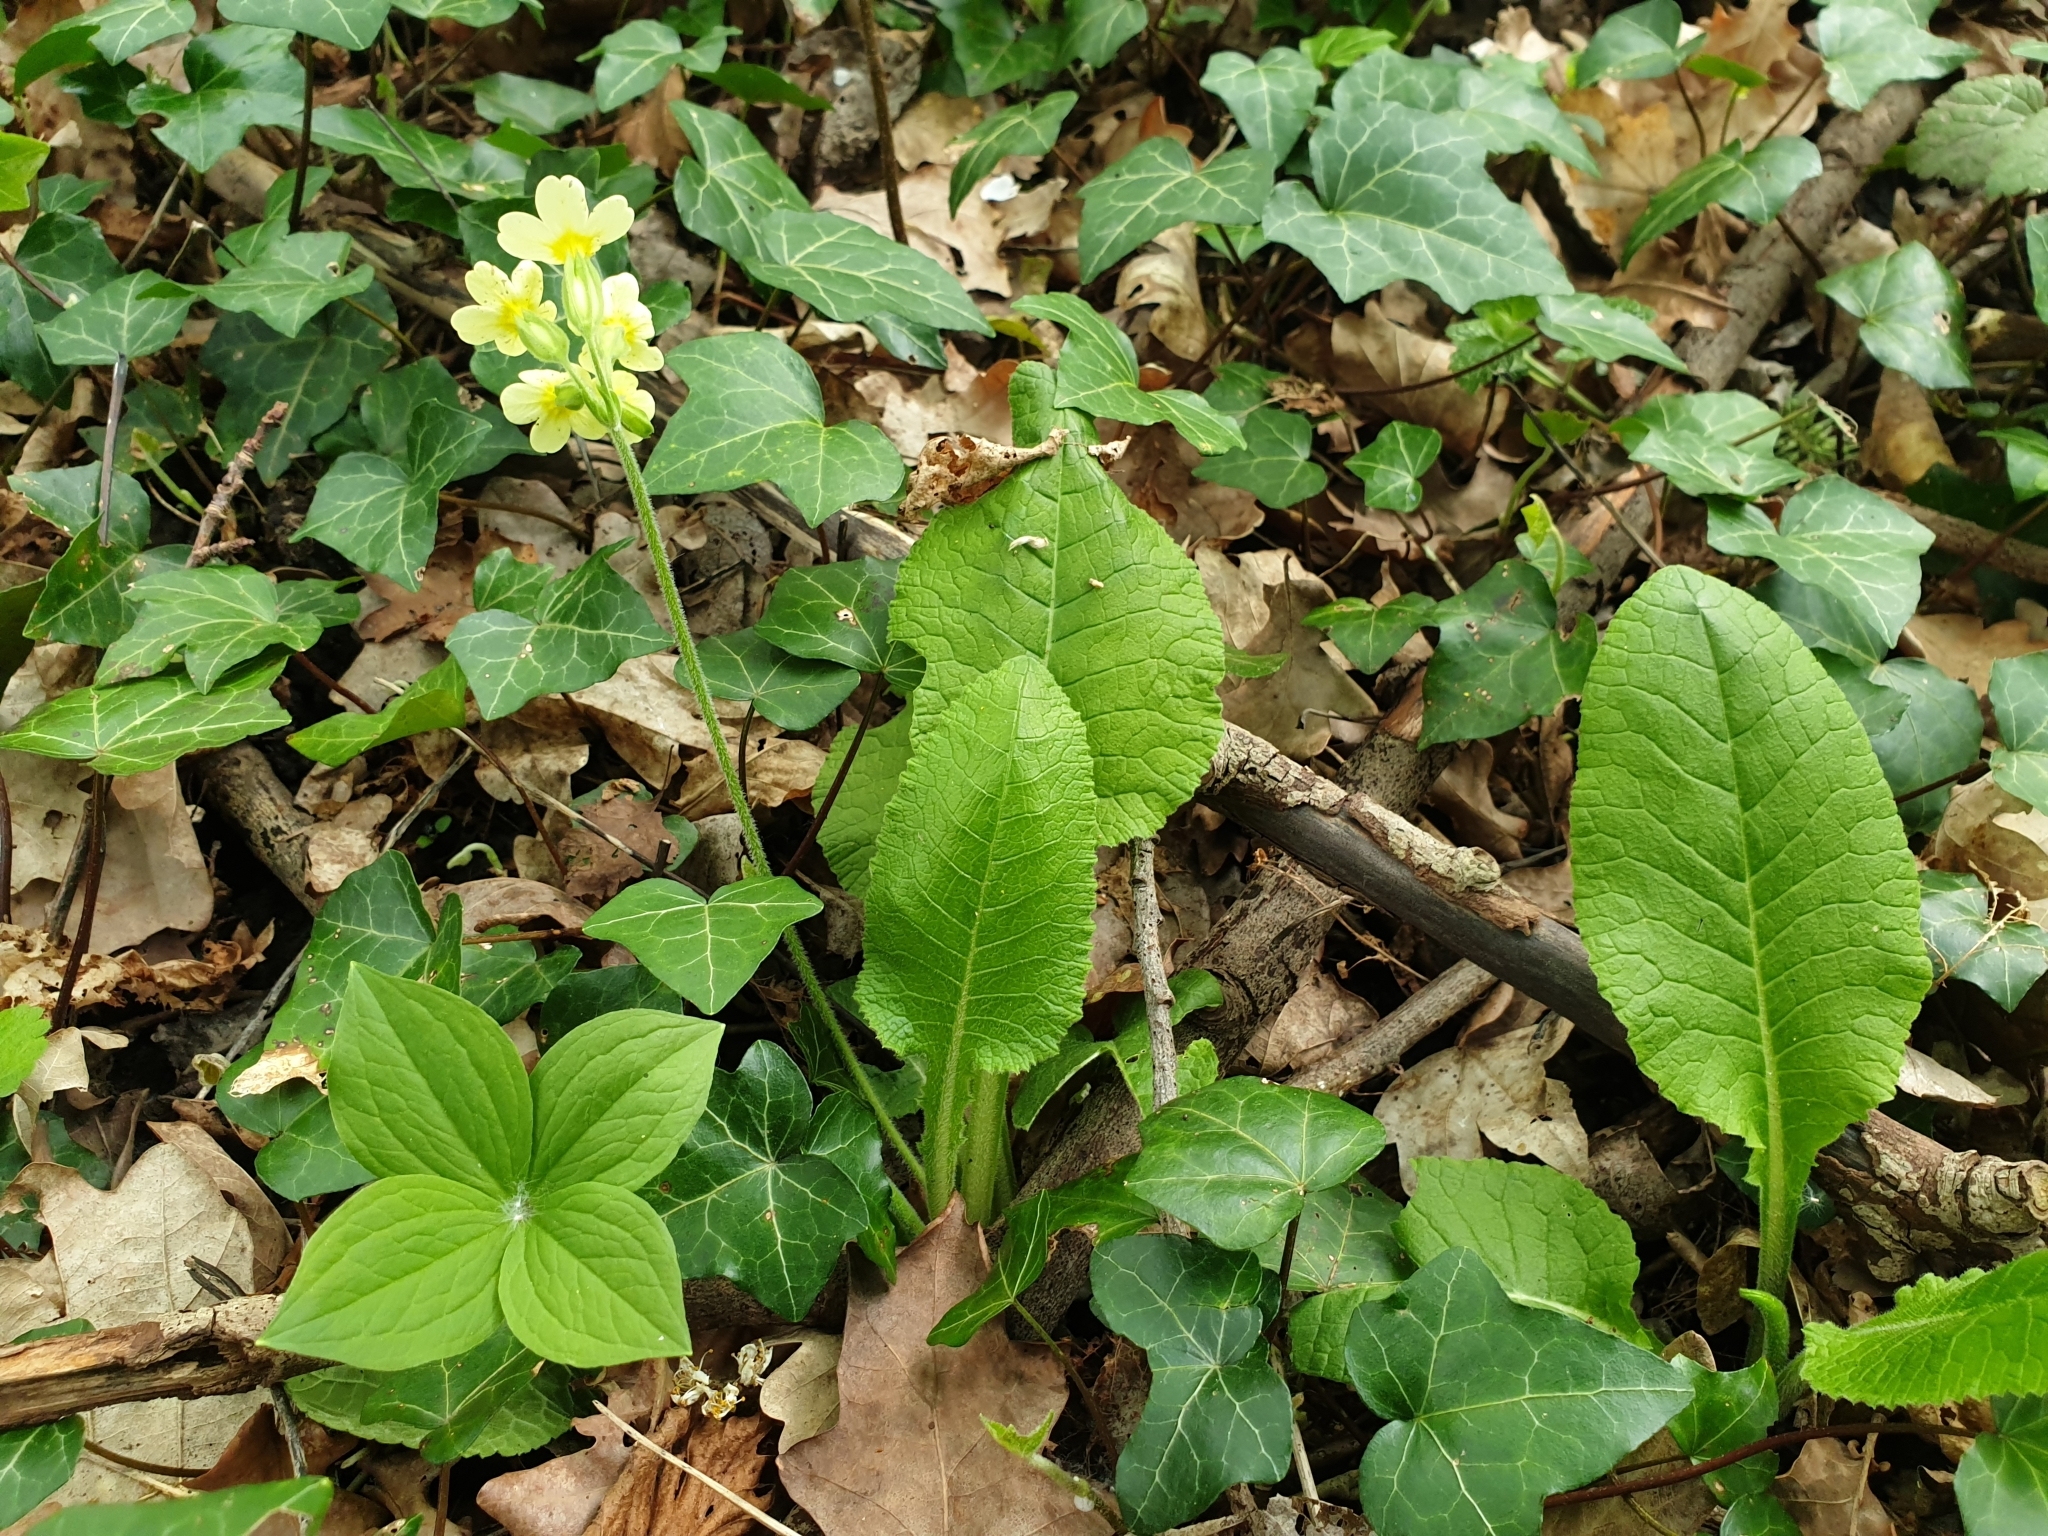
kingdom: Plantae
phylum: Tracheophyta
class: Magnoliopsida
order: Ericales
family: Primulaceae
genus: Primula
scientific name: Primula elatior
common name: Oxlip
